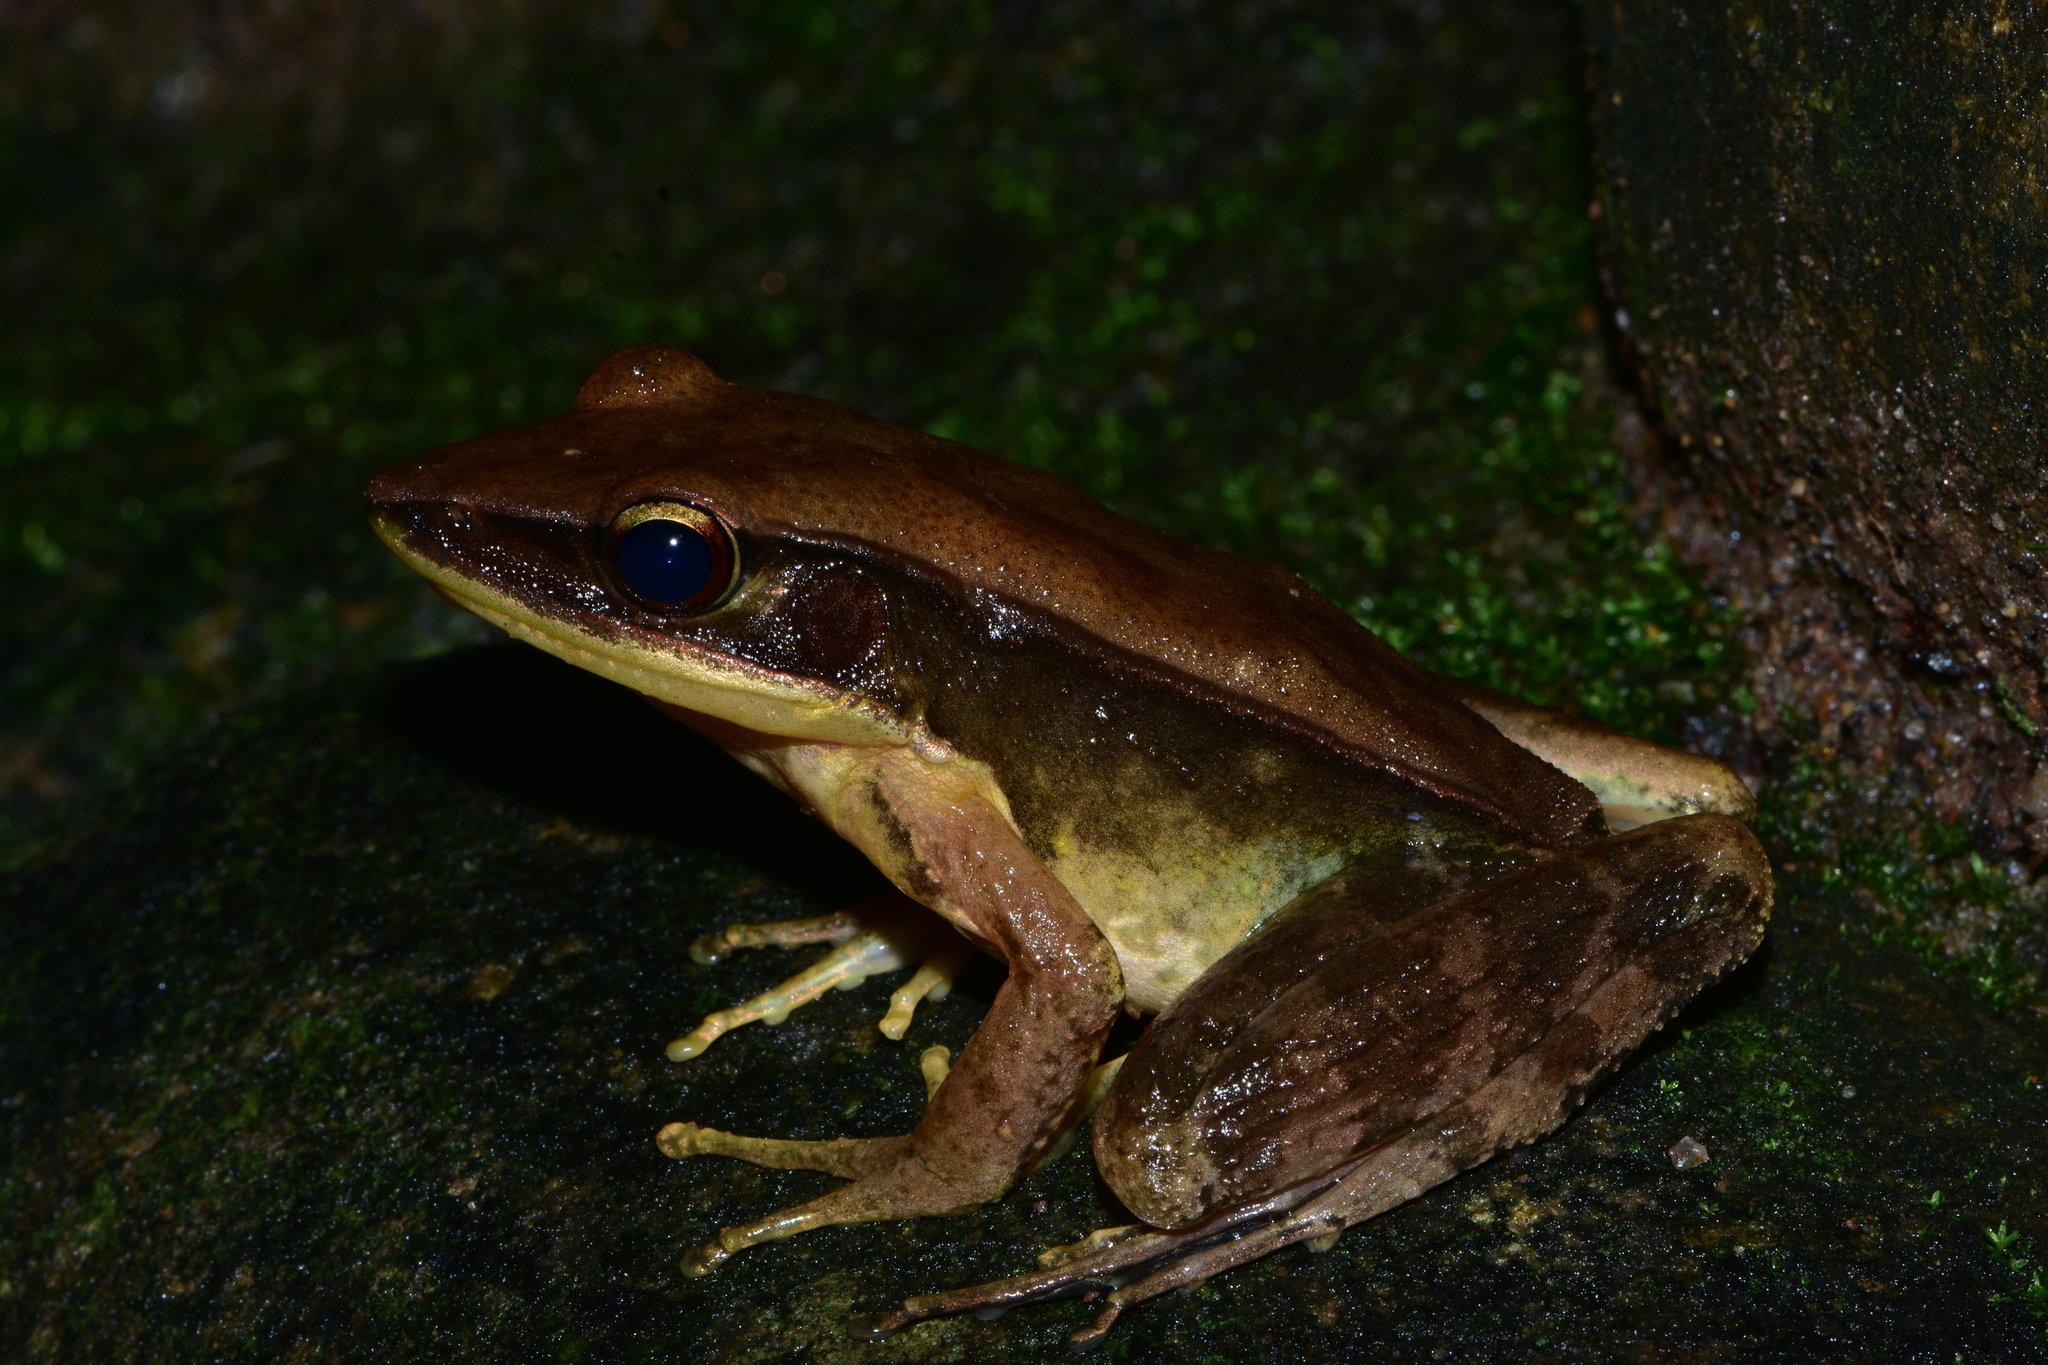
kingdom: Animalia
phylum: Chordata
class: Amphibia
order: Anura
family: Ranidae
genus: Indosylvirana
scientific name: Indosylvirana flavescens
